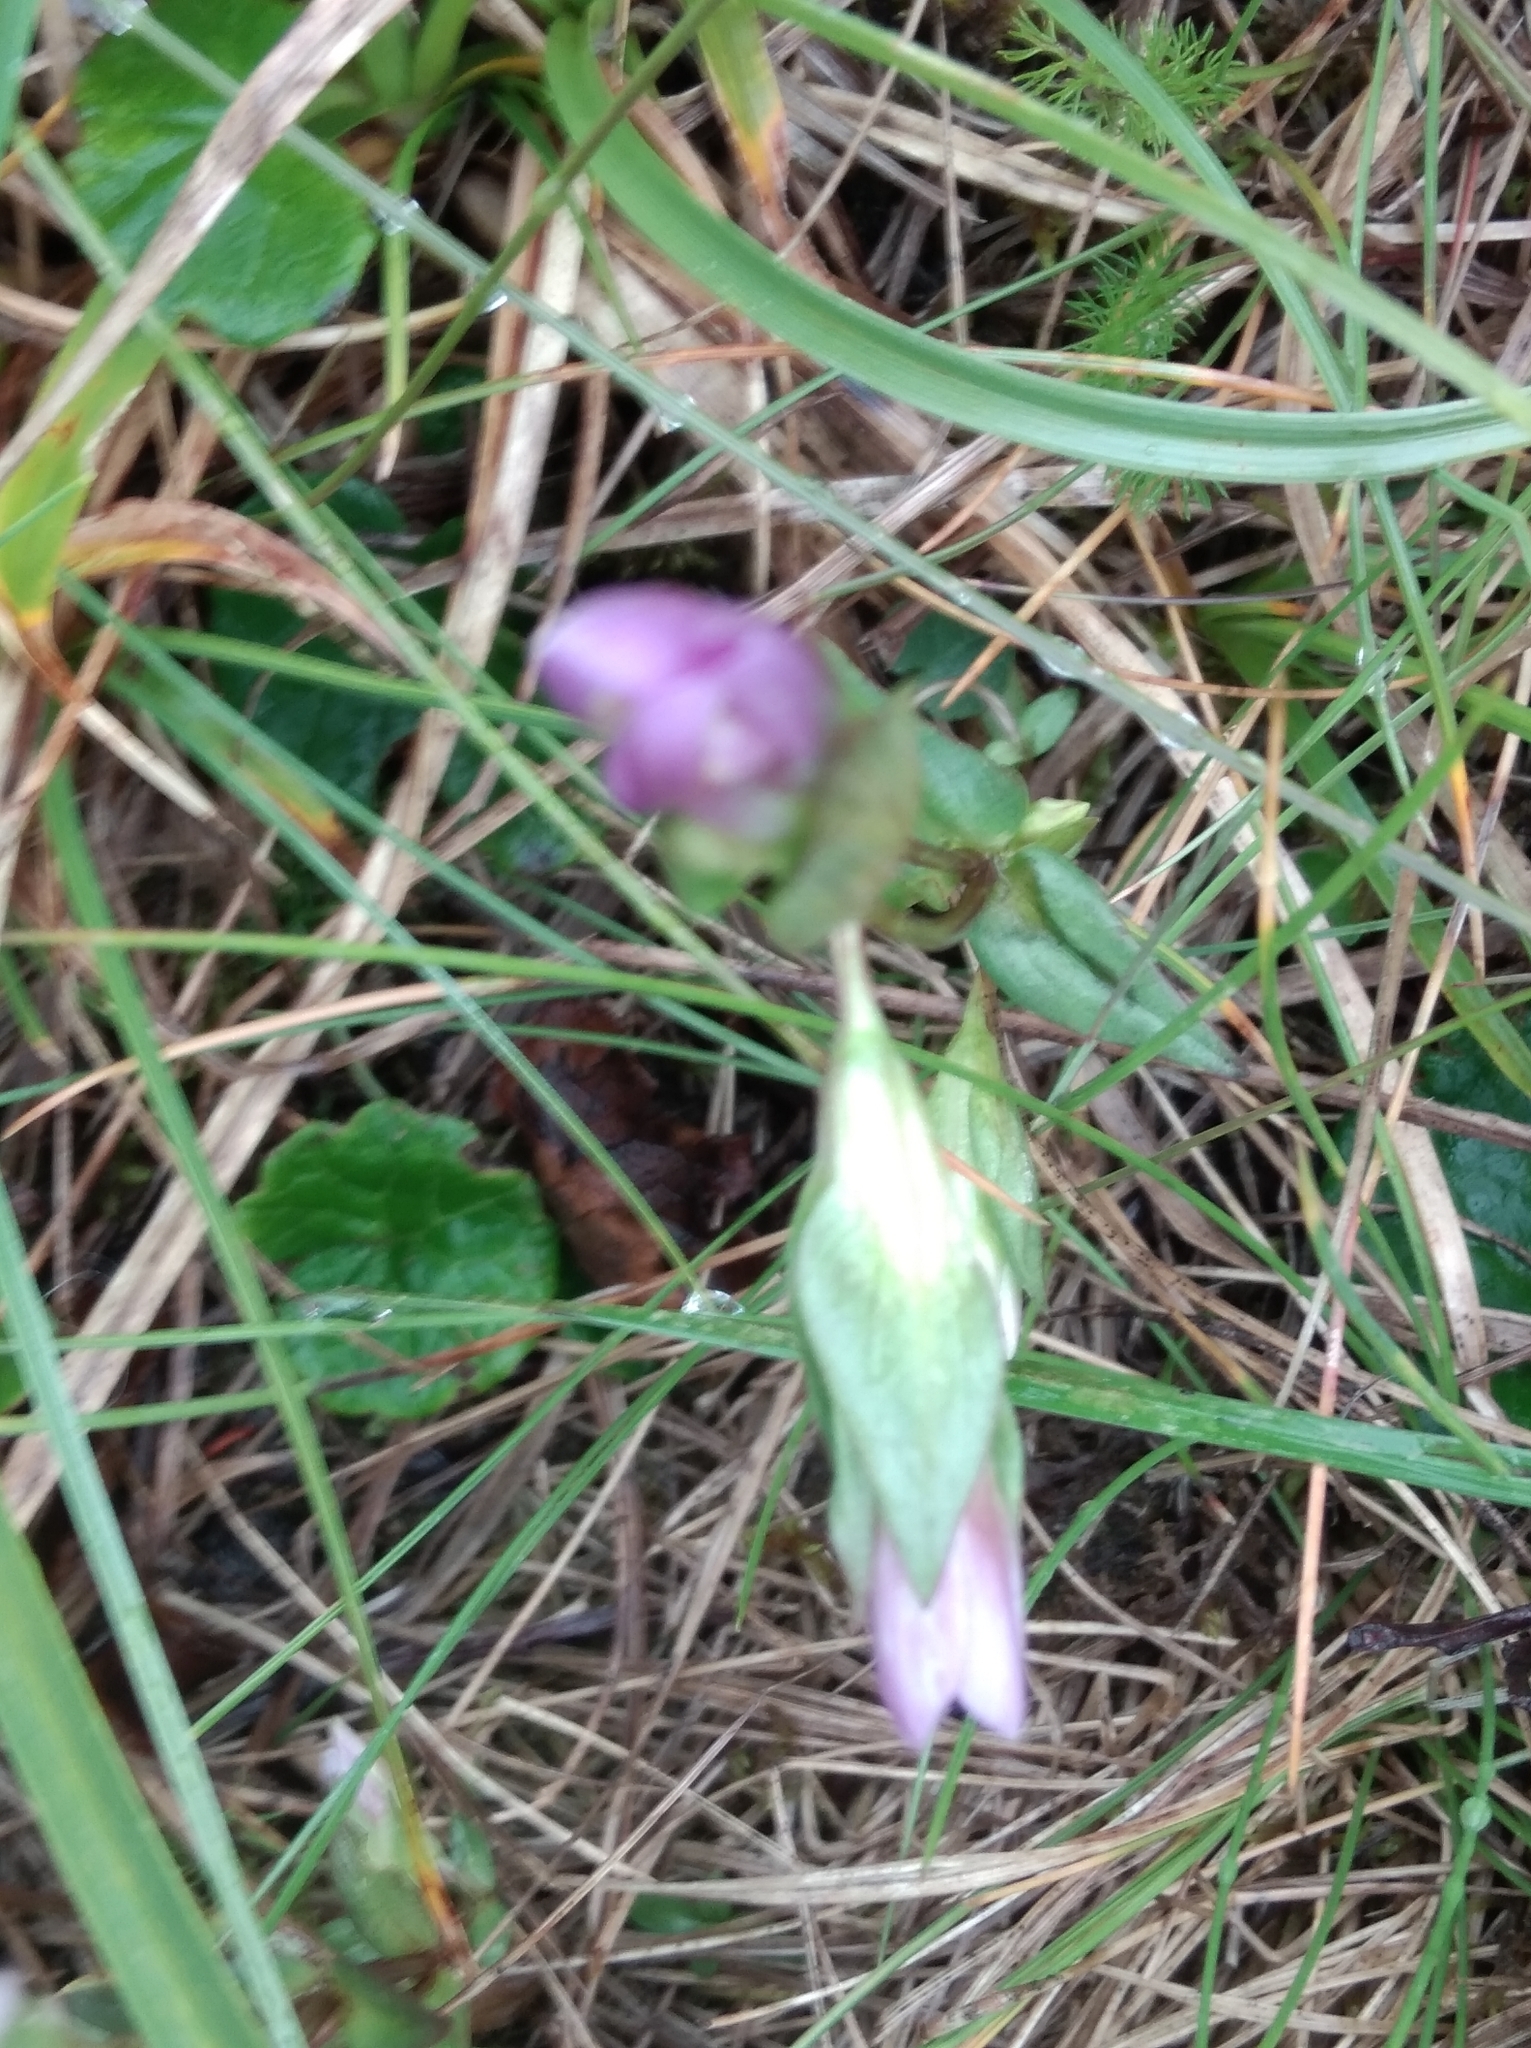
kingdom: Plantae
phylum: Tracheophyta
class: Magnoliopsida
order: Gentianales
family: Gentianaceae
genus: Gentianella
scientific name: Gentianella campestris
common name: Field gentian
